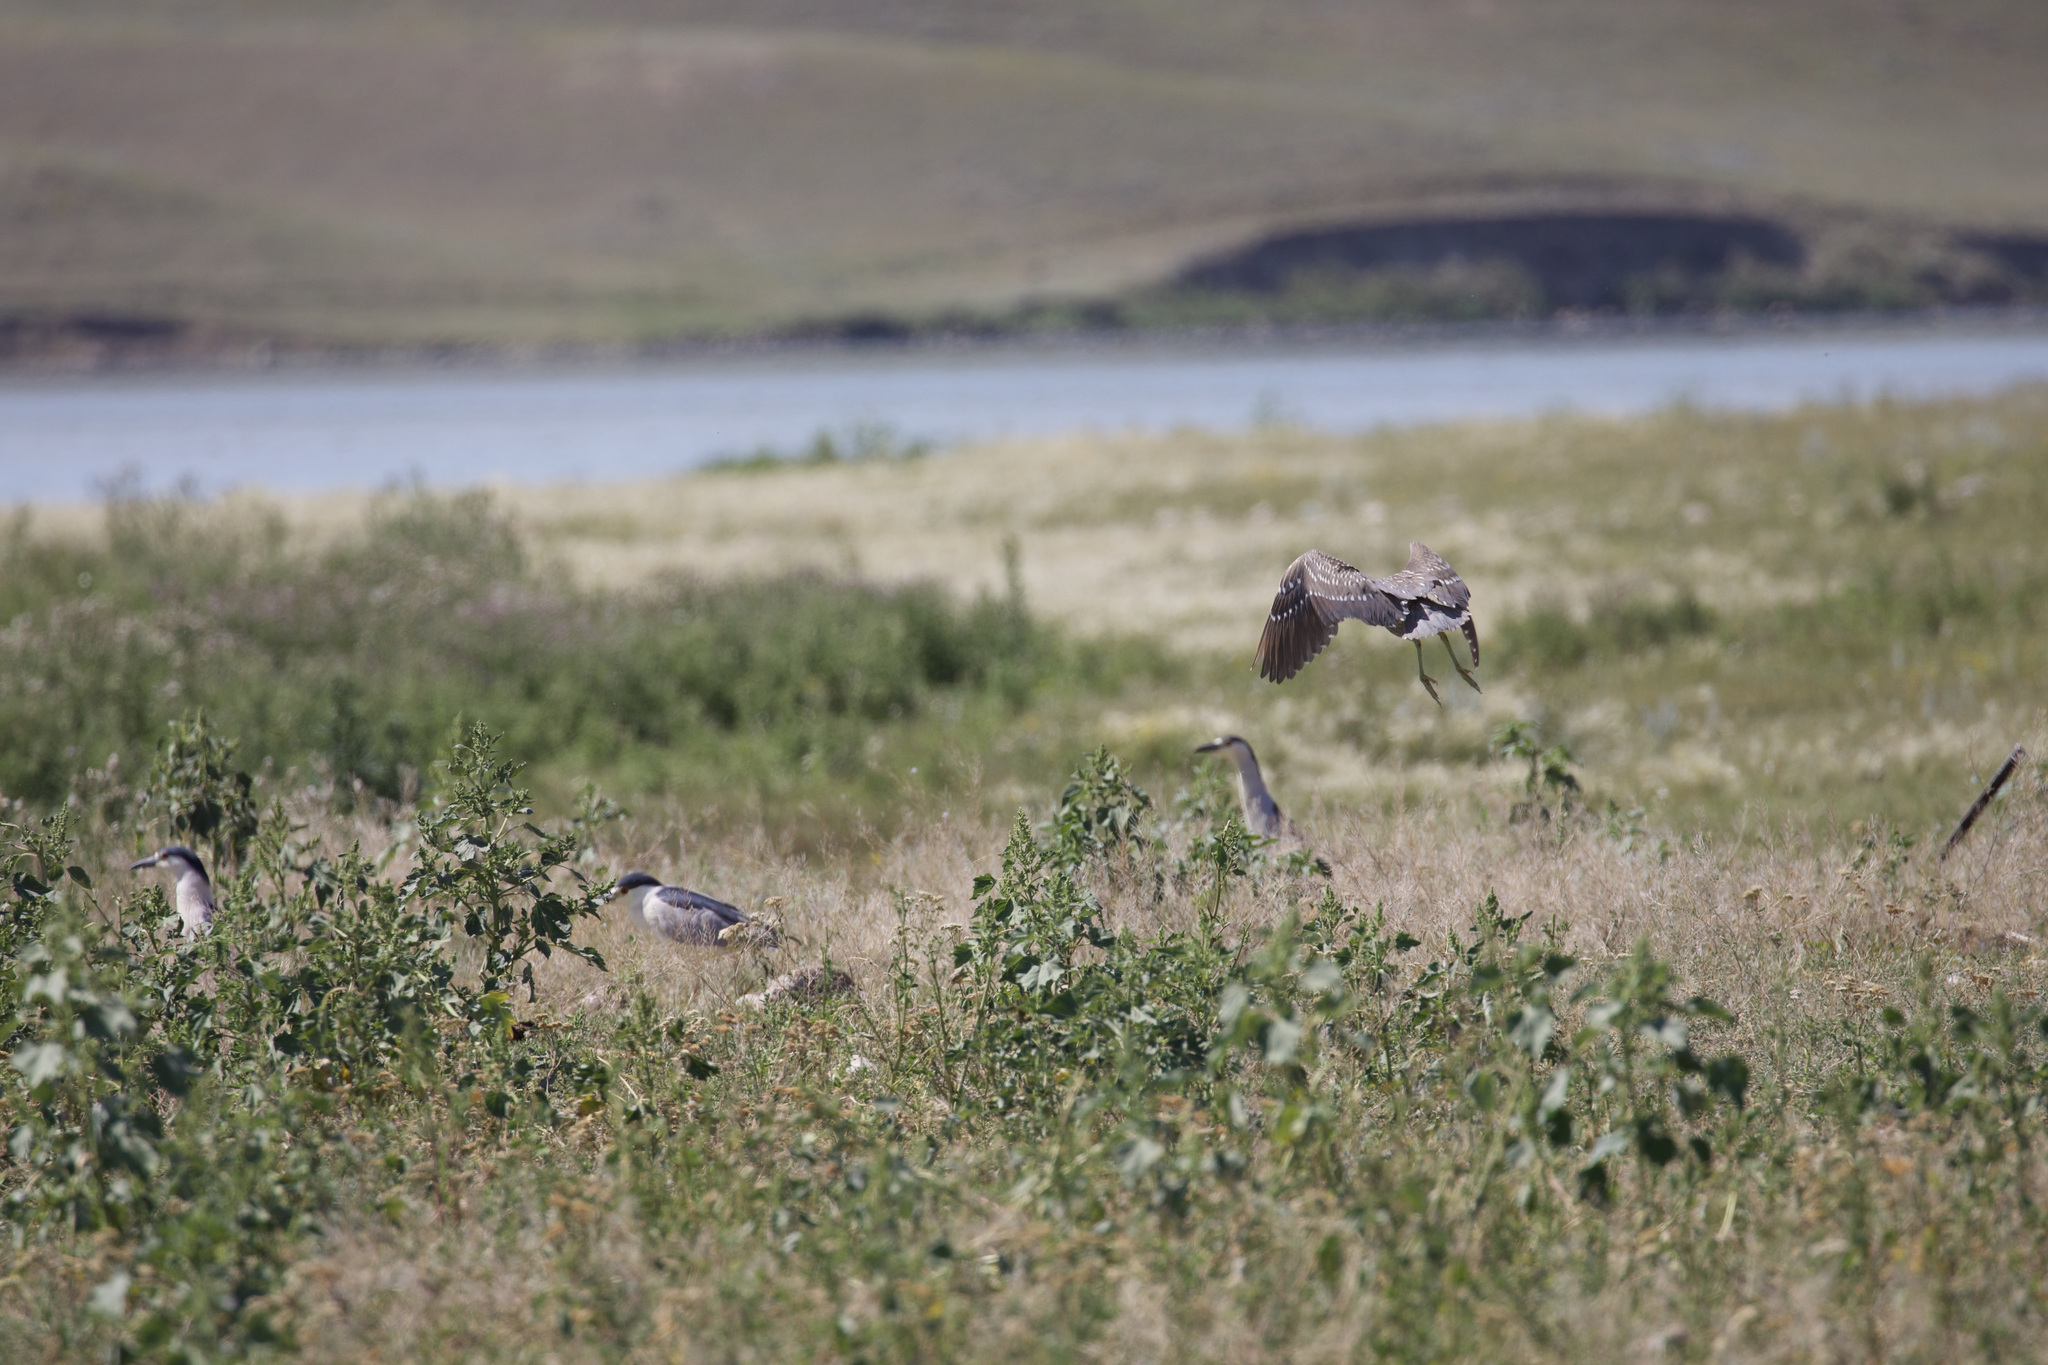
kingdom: Animalia
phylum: Chordata
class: Aves
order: Pelecaniformes
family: Ardeidae
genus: Nycticorax
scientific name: Nycticorax nycticorax
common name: Black-crowned night heron
